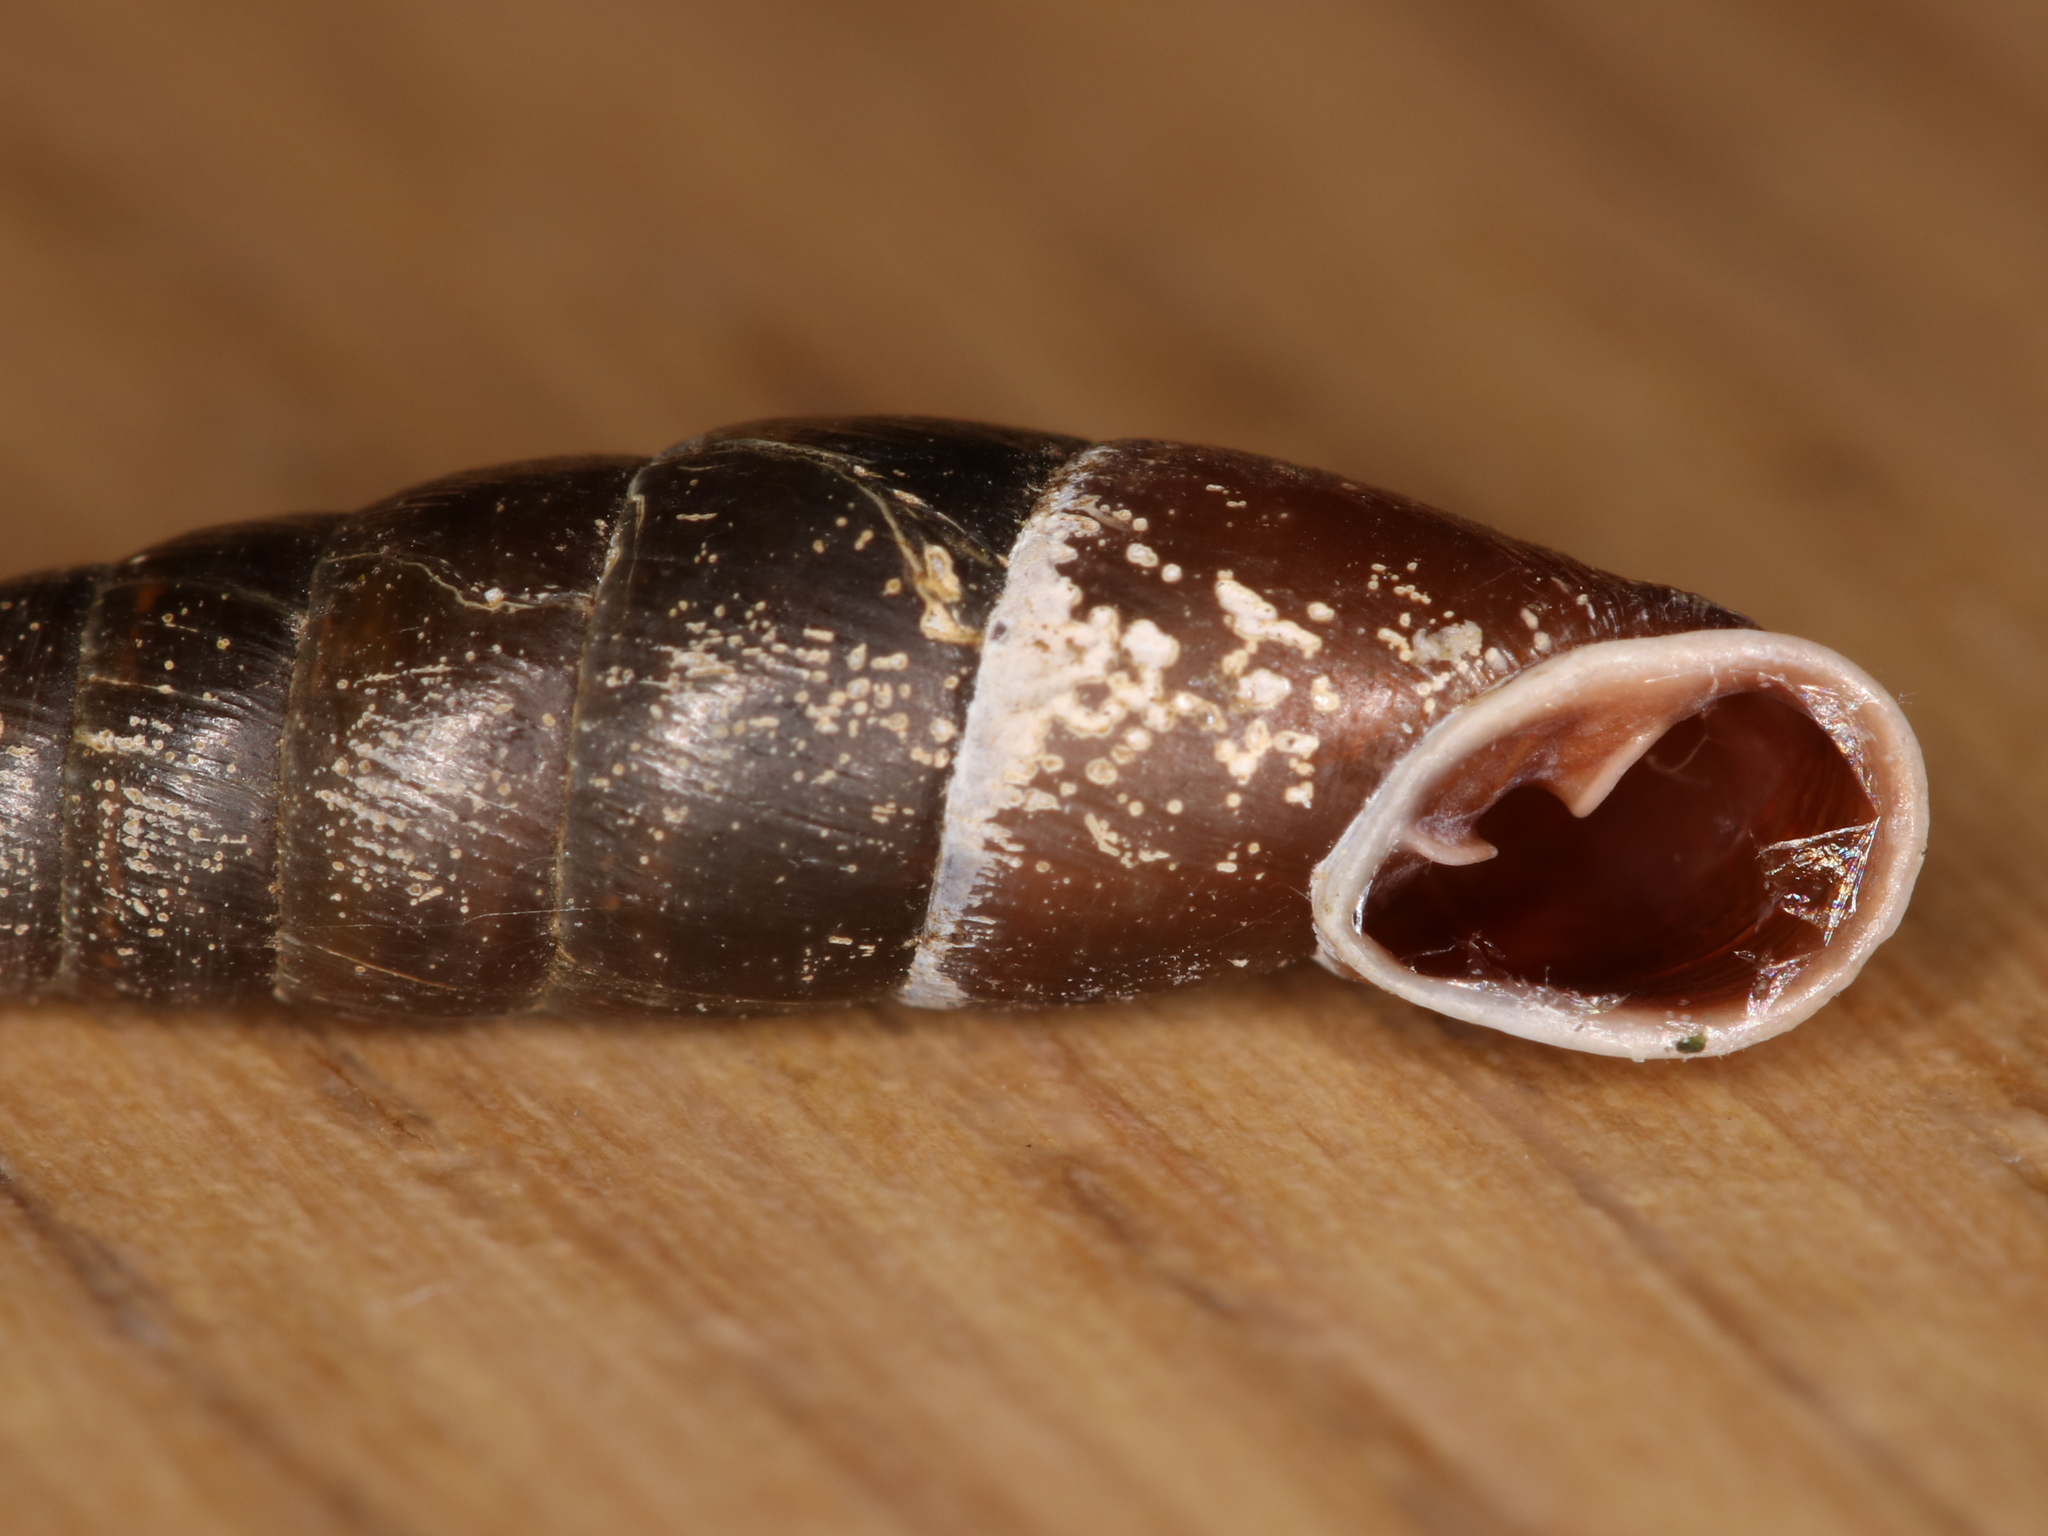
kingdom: Animalia
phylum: Mollusca
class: Gastropoda
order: Stylommatophora
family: Clausiliidae
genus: Cochlodina
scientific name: Cochlodina laminata
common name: Plaited door snail
